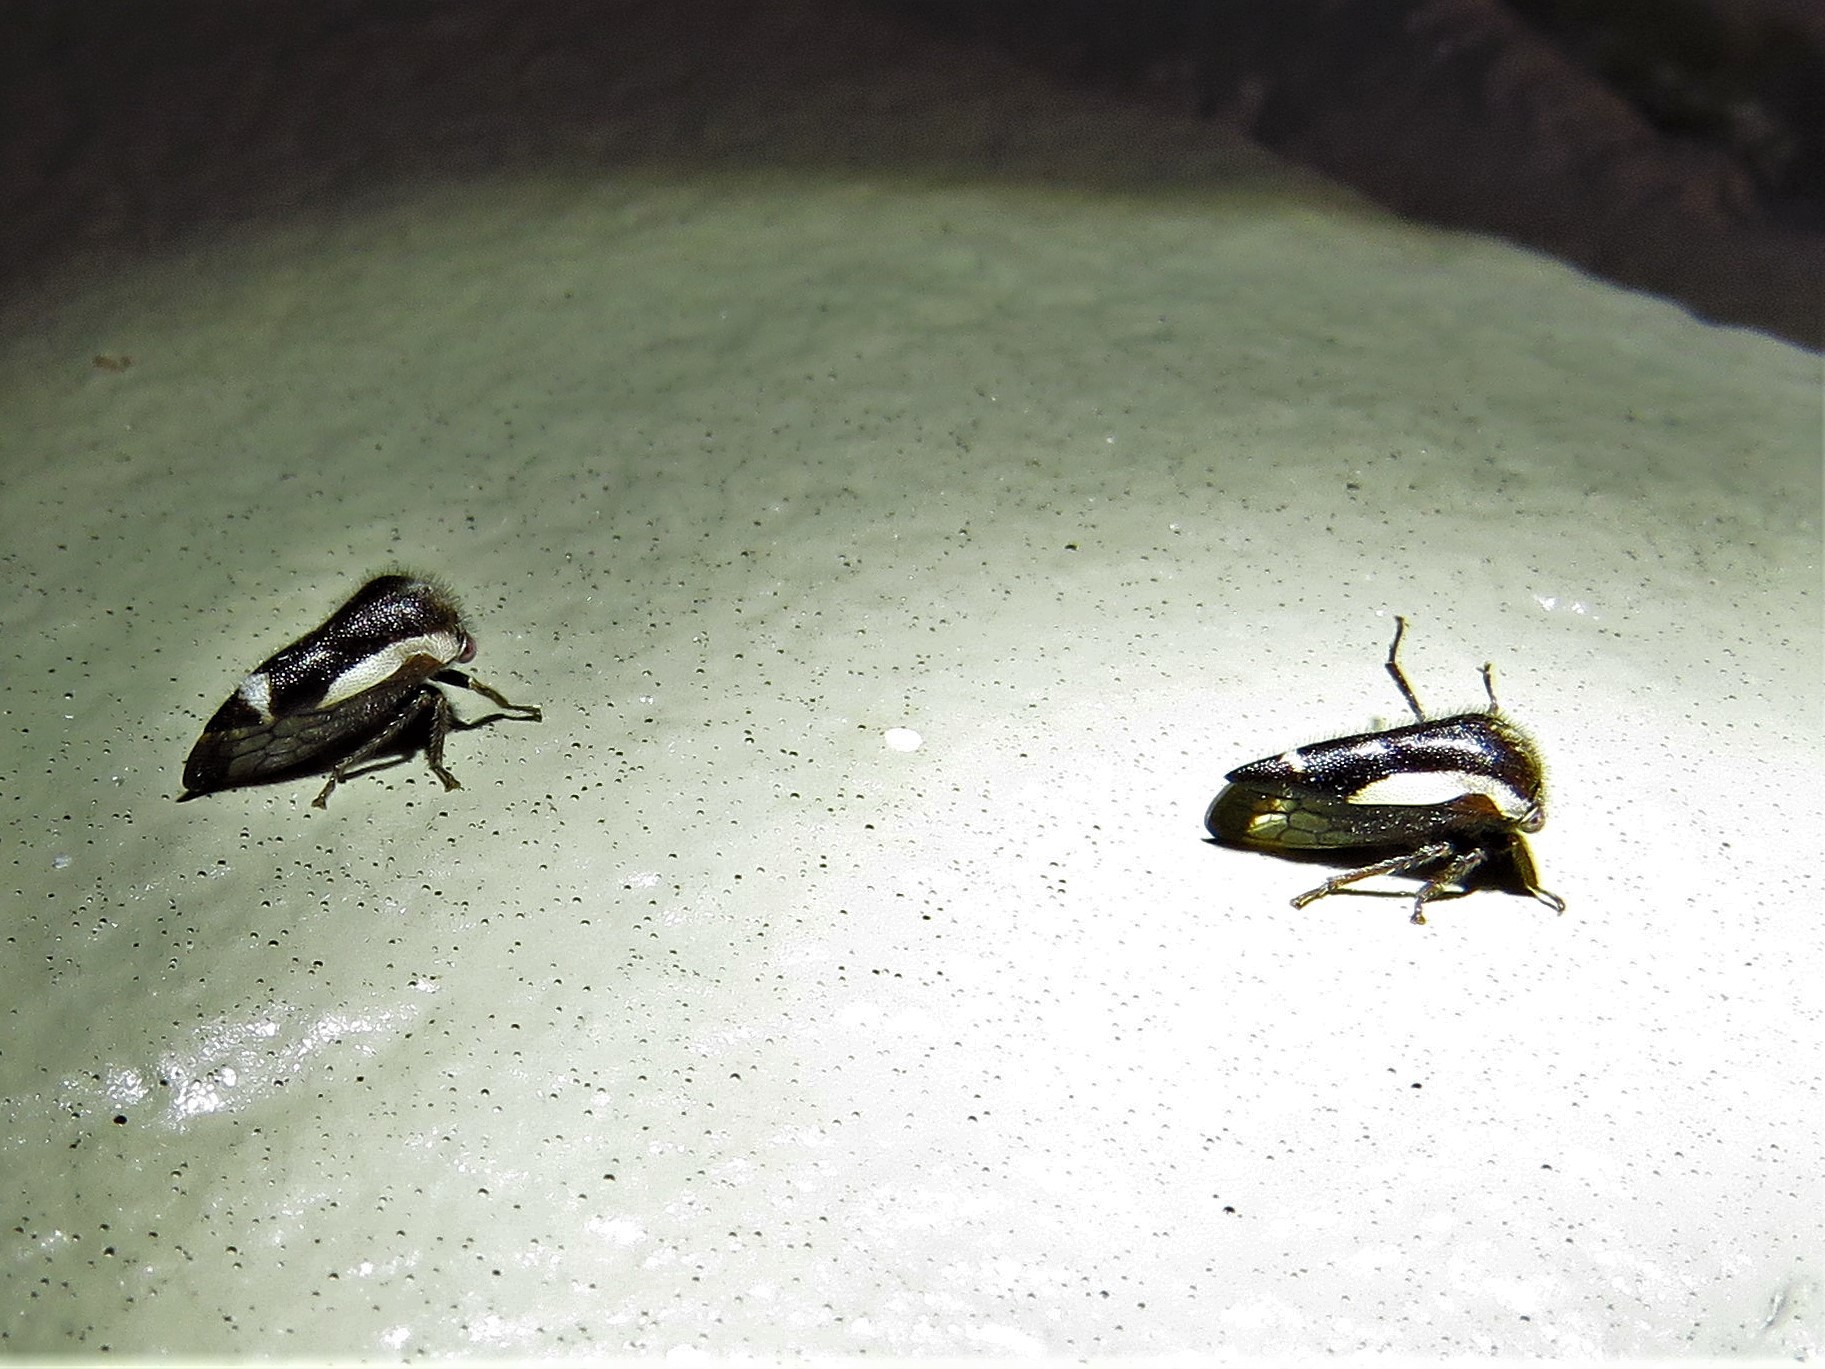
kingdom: Animalia
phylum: Arthropoda
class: Insecta
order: Hemiptera
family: Membracidae
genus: Ophiderma
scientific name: Ophiderma flavicephala
